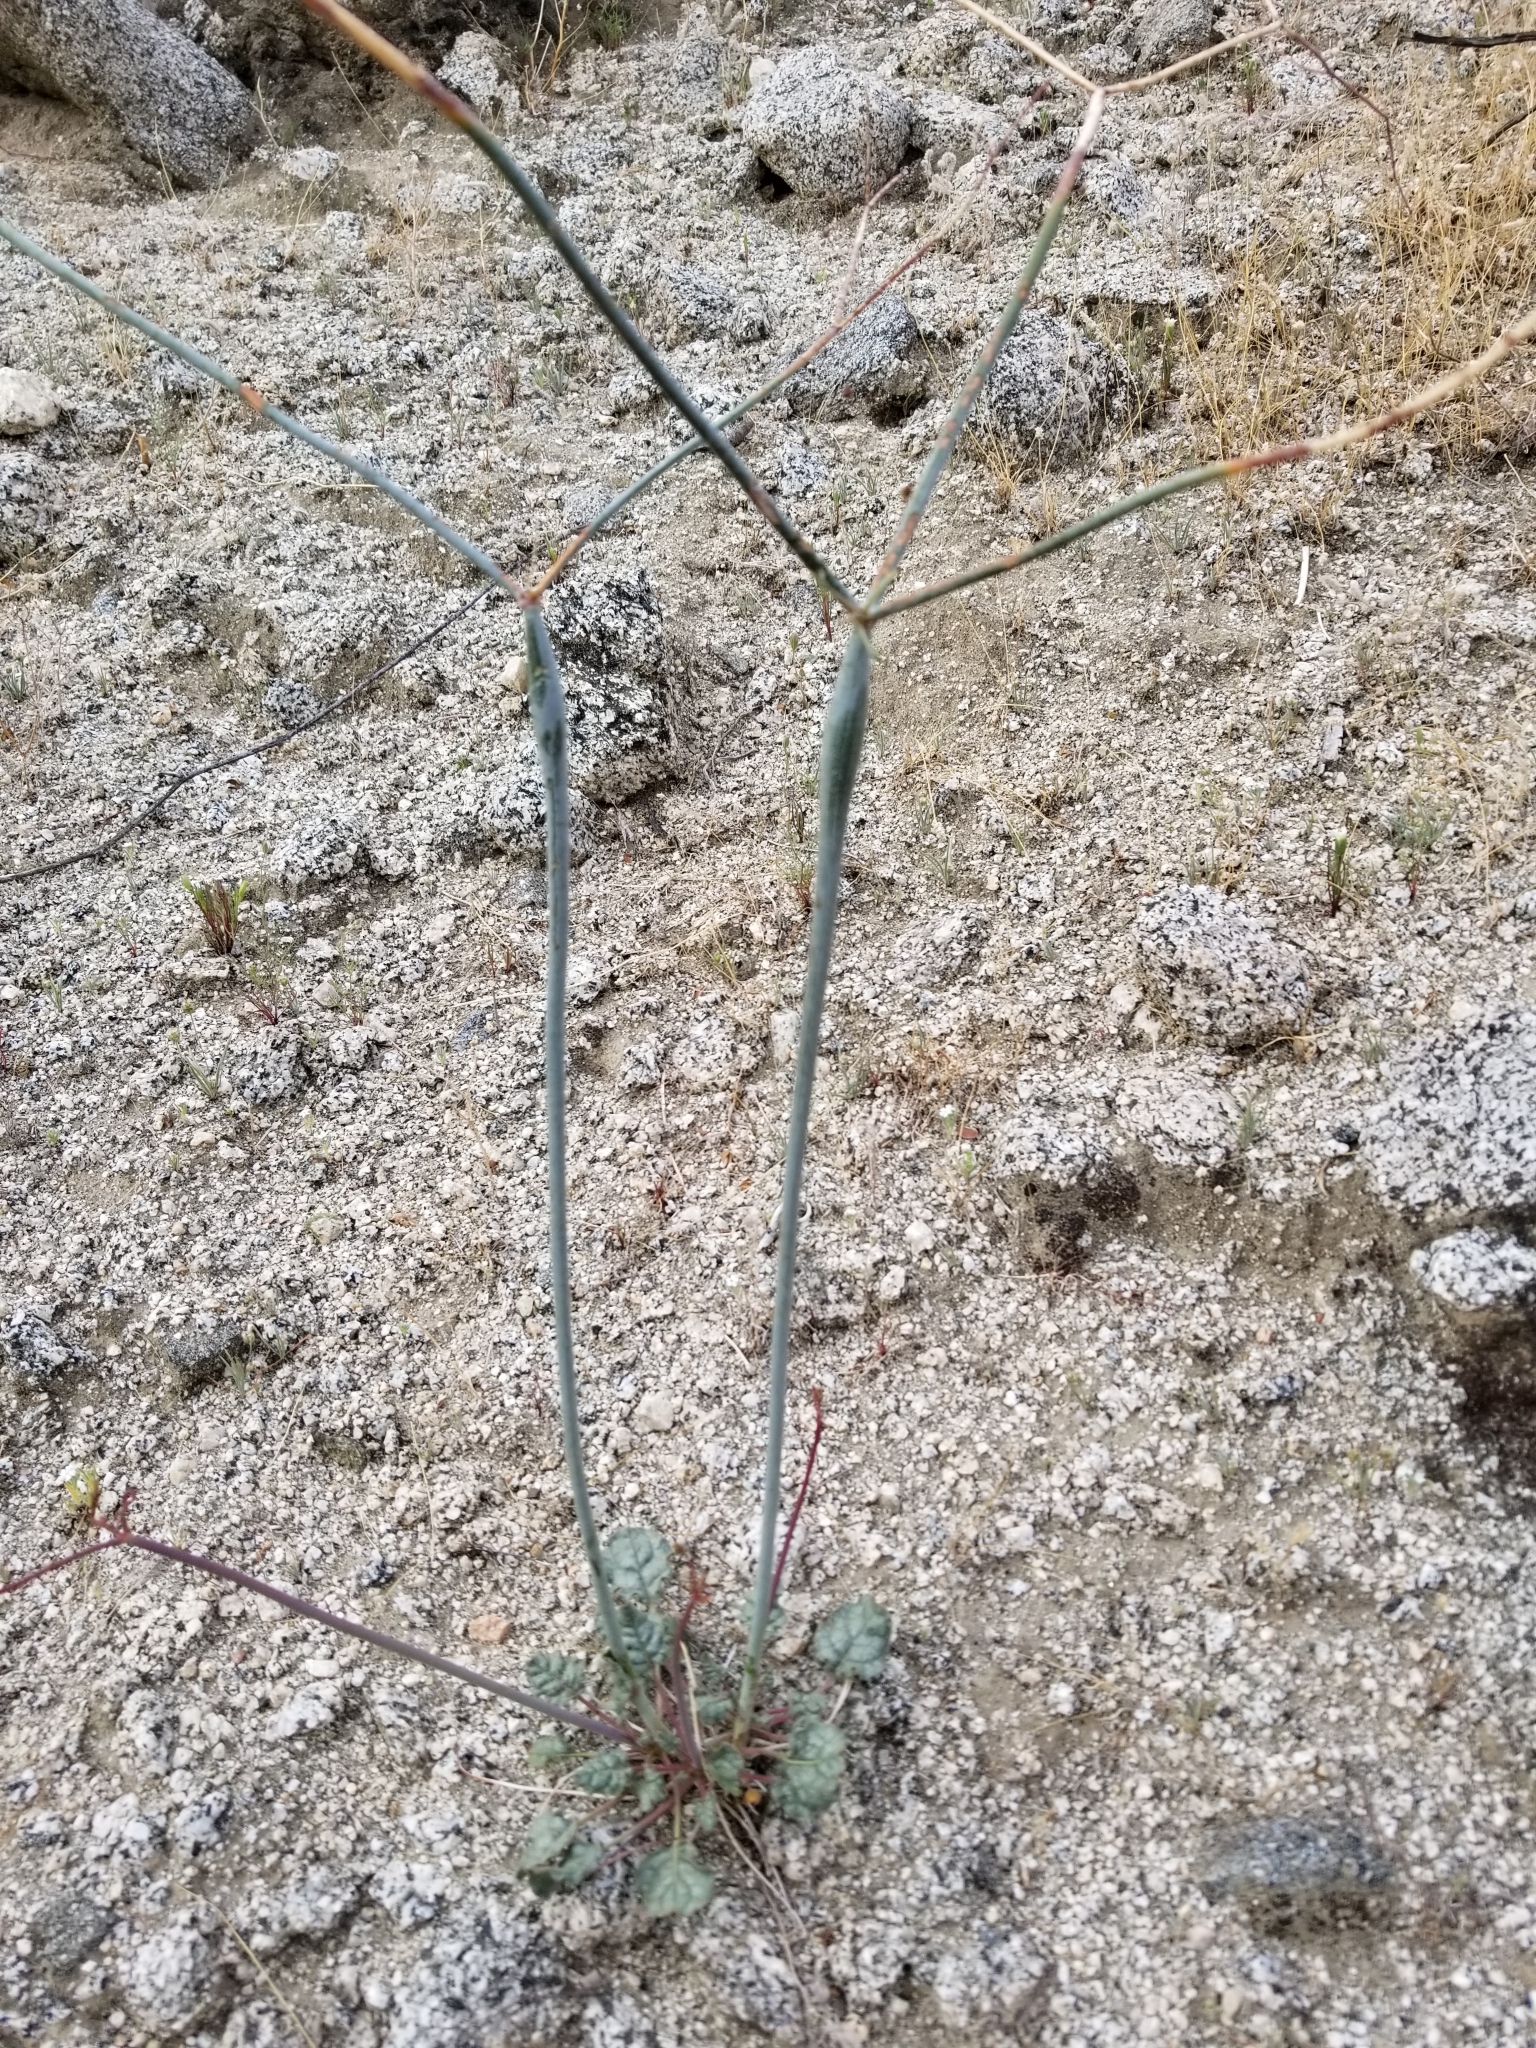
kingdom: Plantae
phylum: Tracheophyta
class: Magnoliopsida
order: Caryophyllales
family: Polygonaceae
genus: Eriogonum
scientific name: Eriogonum inflatum
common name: Desert trumpet
